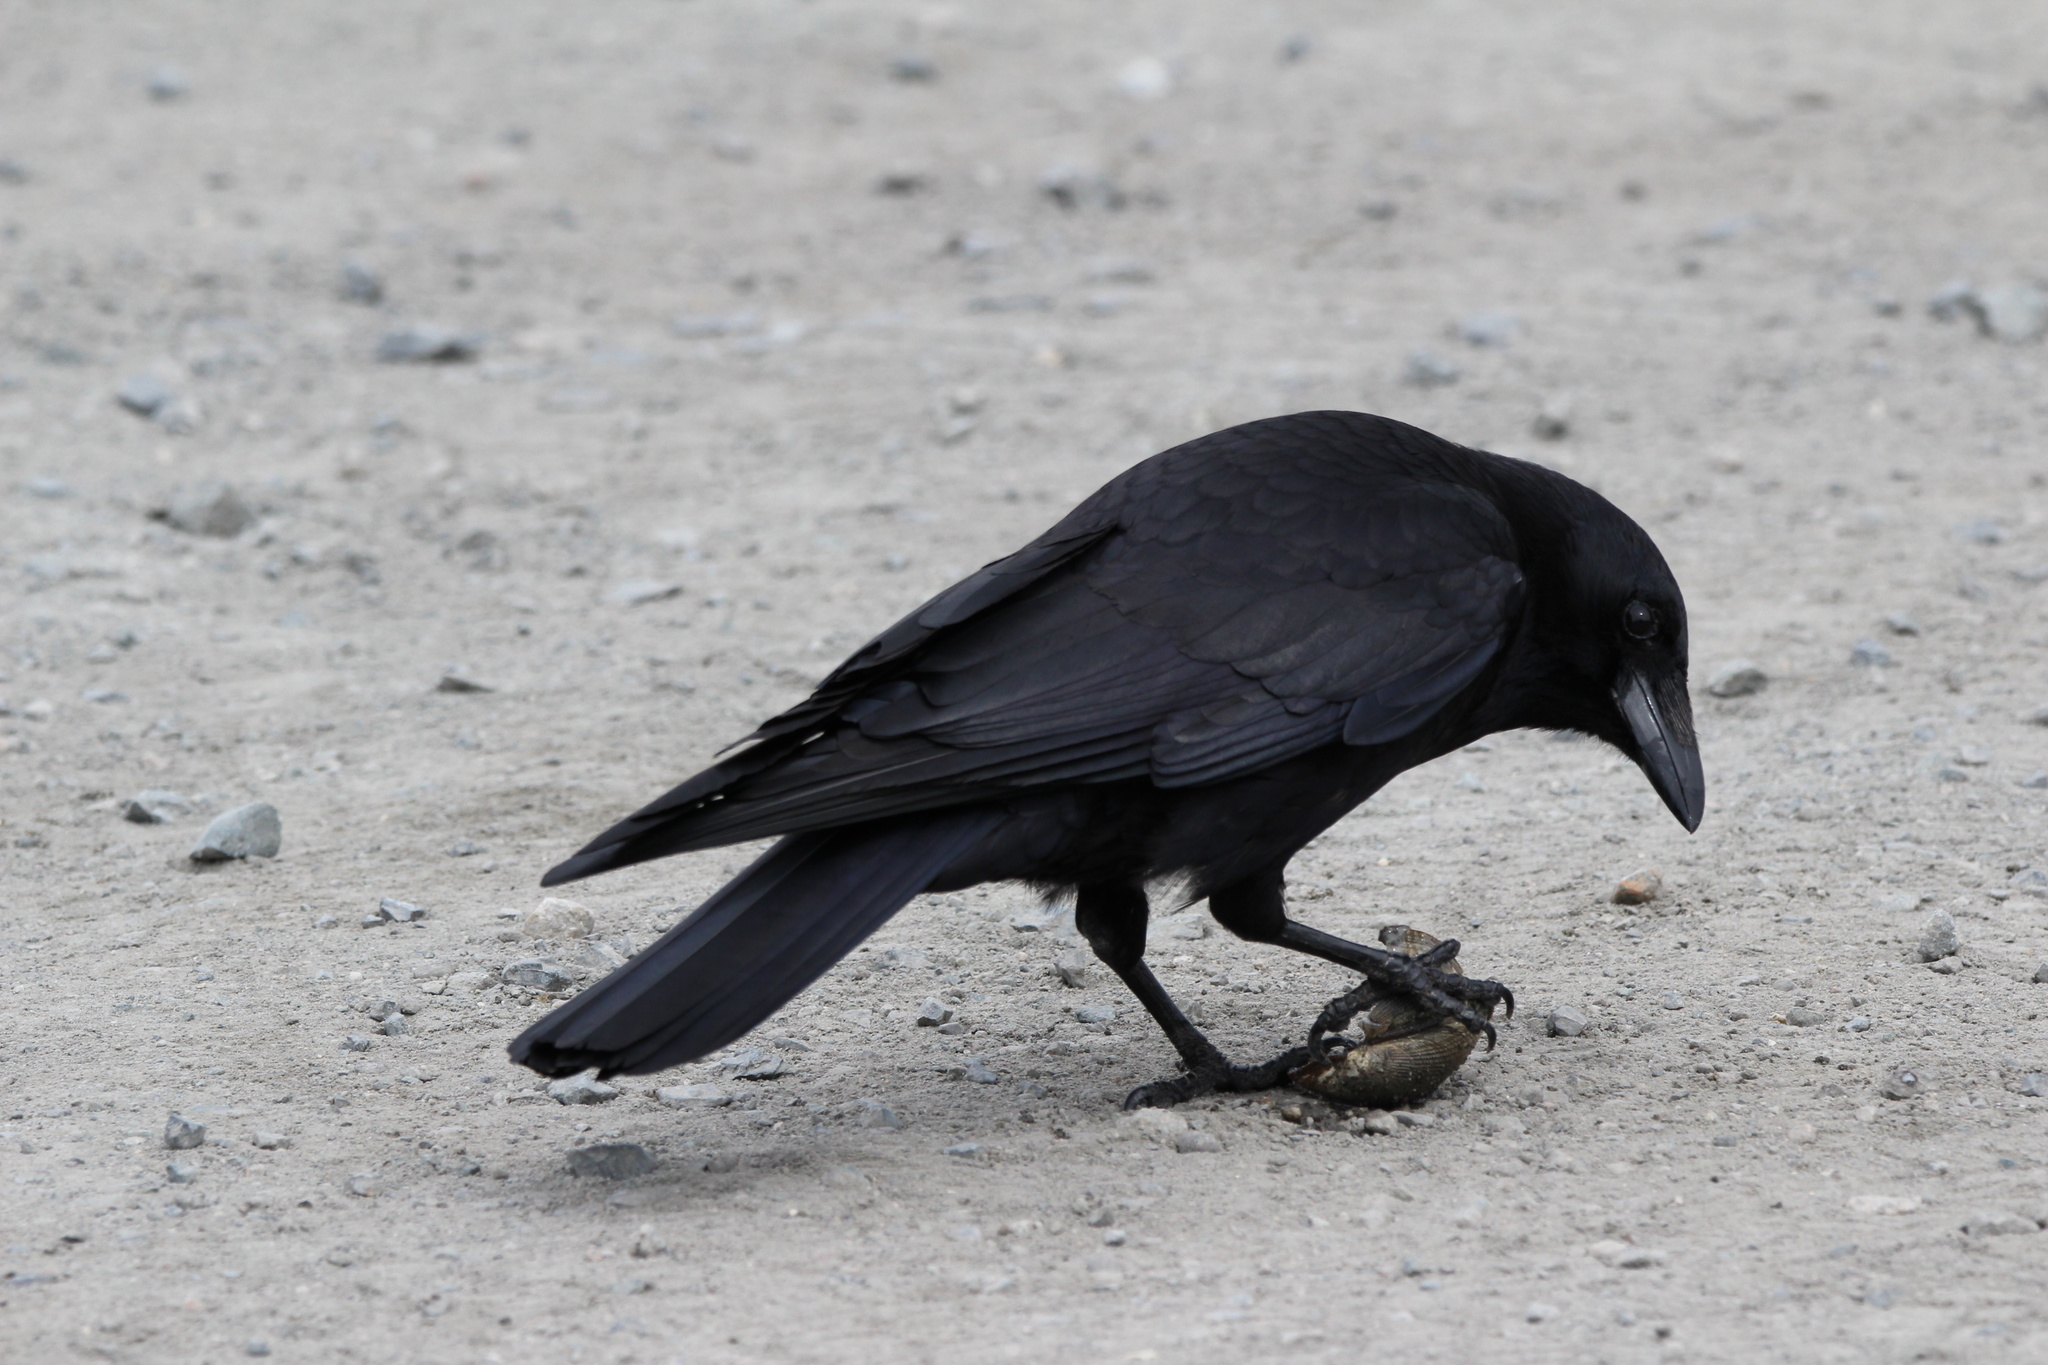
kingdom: Animalia
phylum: Chordata
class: Aves
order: Passeriformes
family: Corvidae
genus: Corvus
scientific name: Corvus brachyrhynchos
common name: American crow
